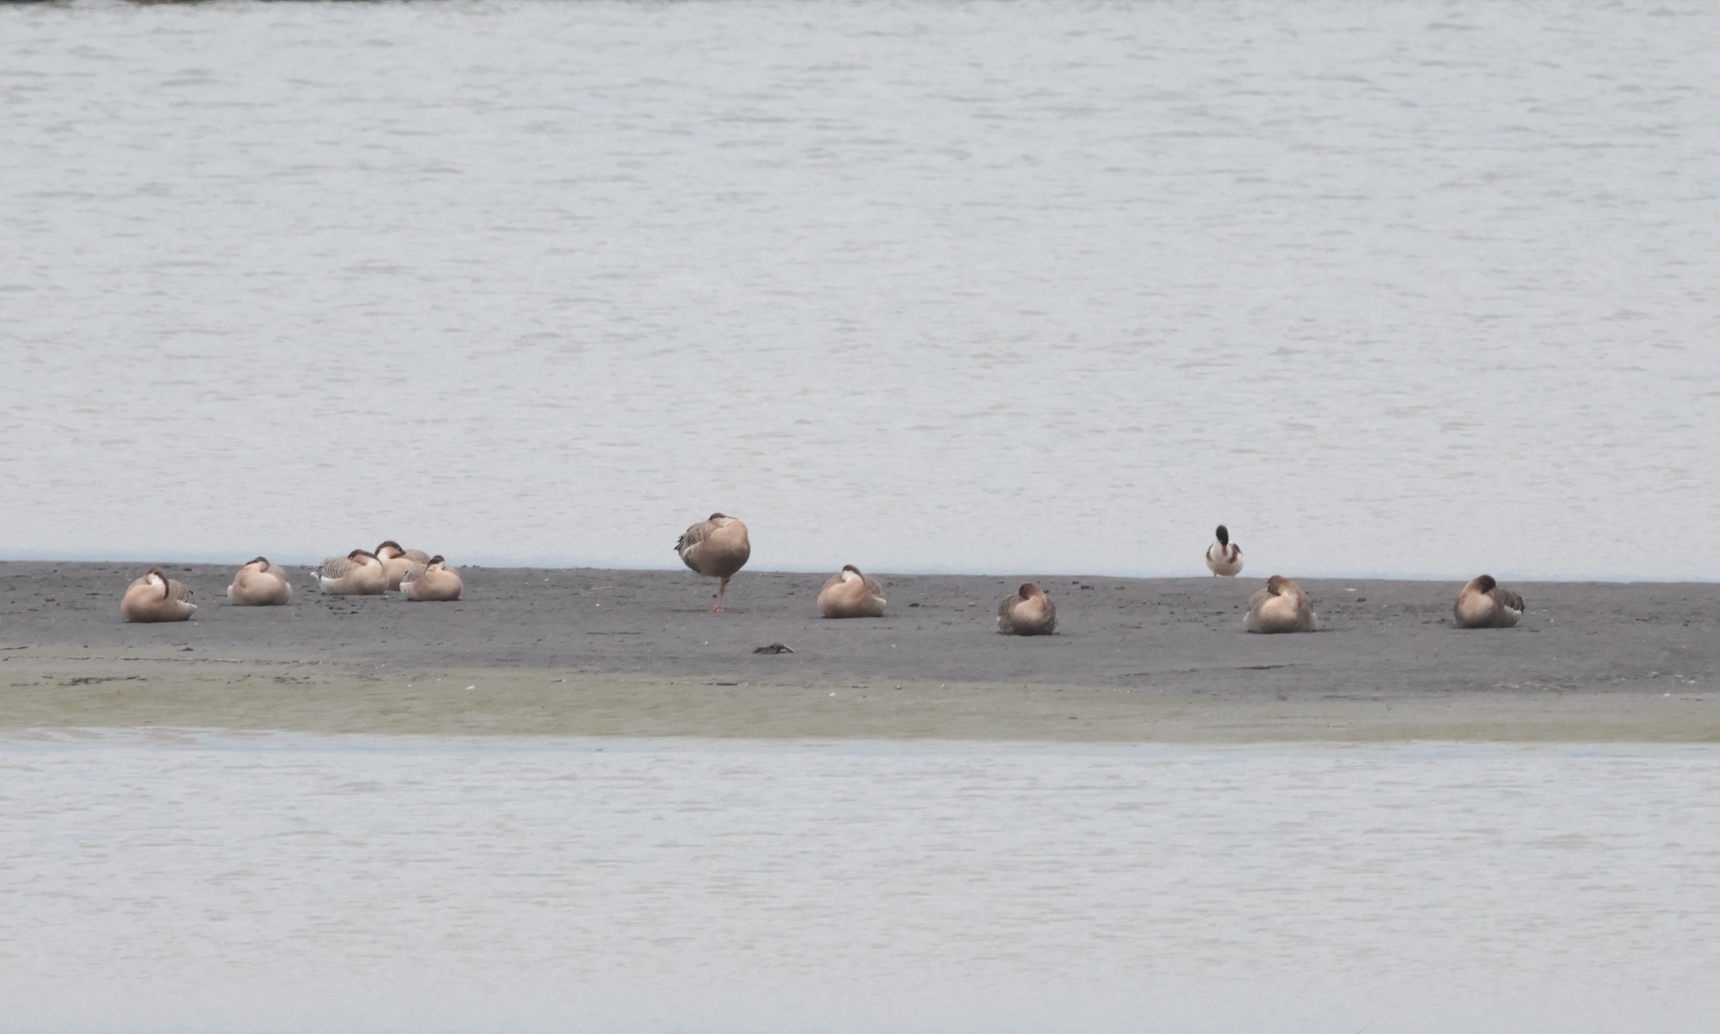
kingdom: Animalia
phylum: Chordata
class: Aves
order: Anseriformes
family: Anatidae
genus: Anser
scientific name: Anser cygnoides
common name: Swan goose
